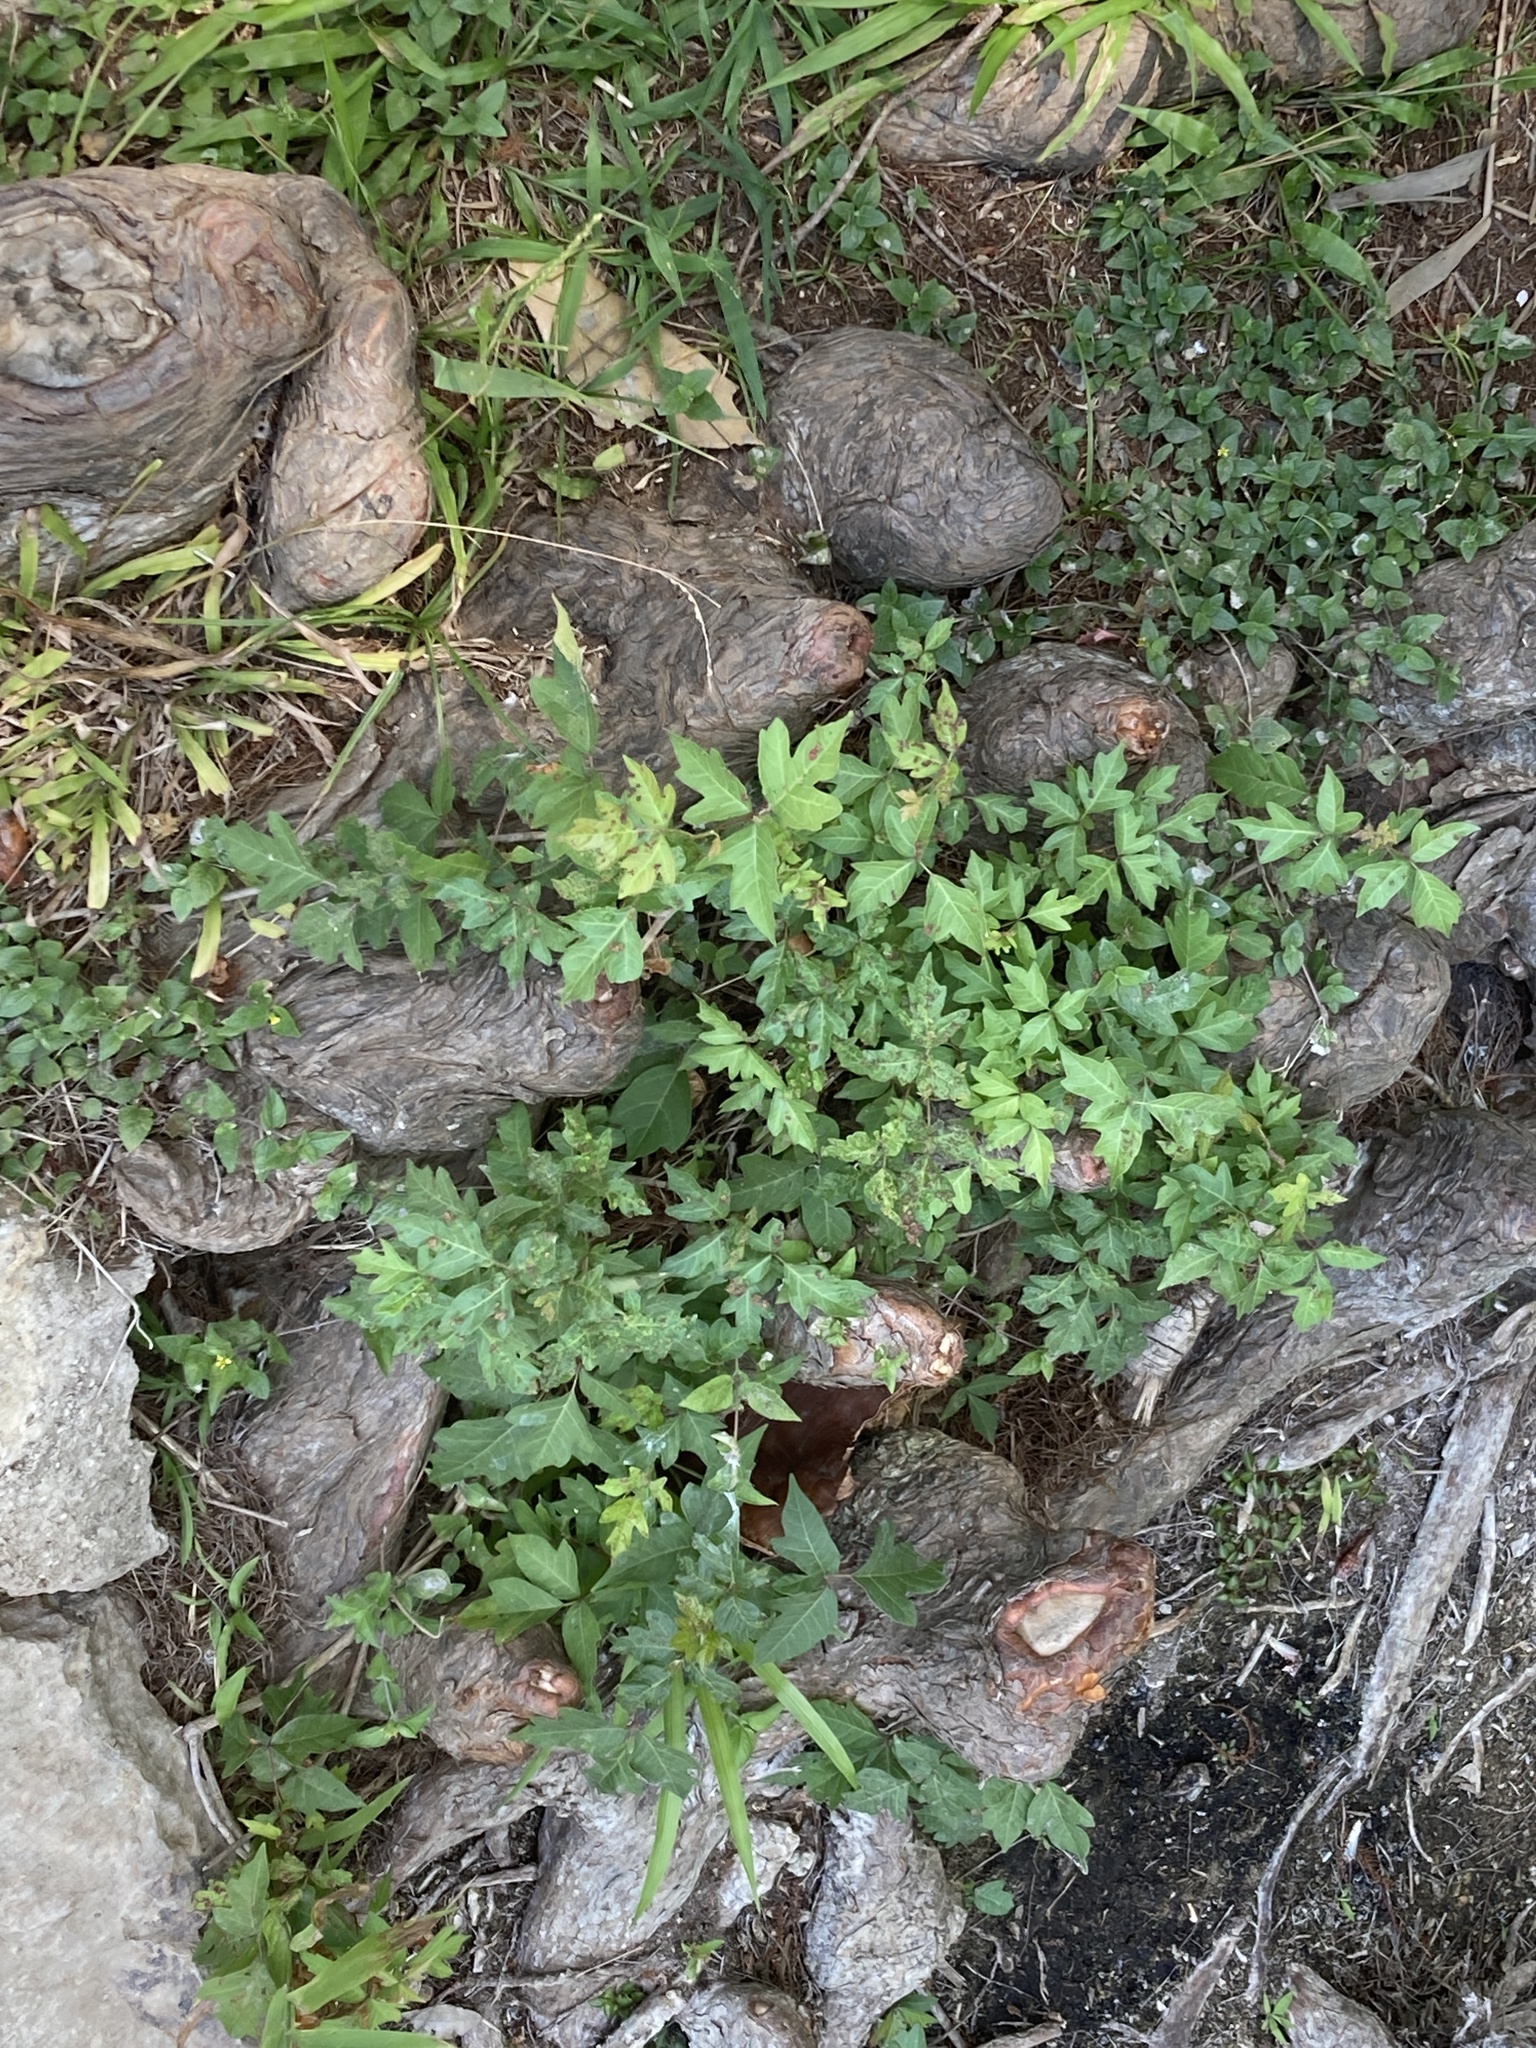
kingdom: Plantae
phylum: Tracheophyta
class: Magnoliopsida
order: Sapindales
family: Anacardiaceae
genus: Toxicodendron
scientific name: Toxicodendron radicans
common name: Poison ivy
